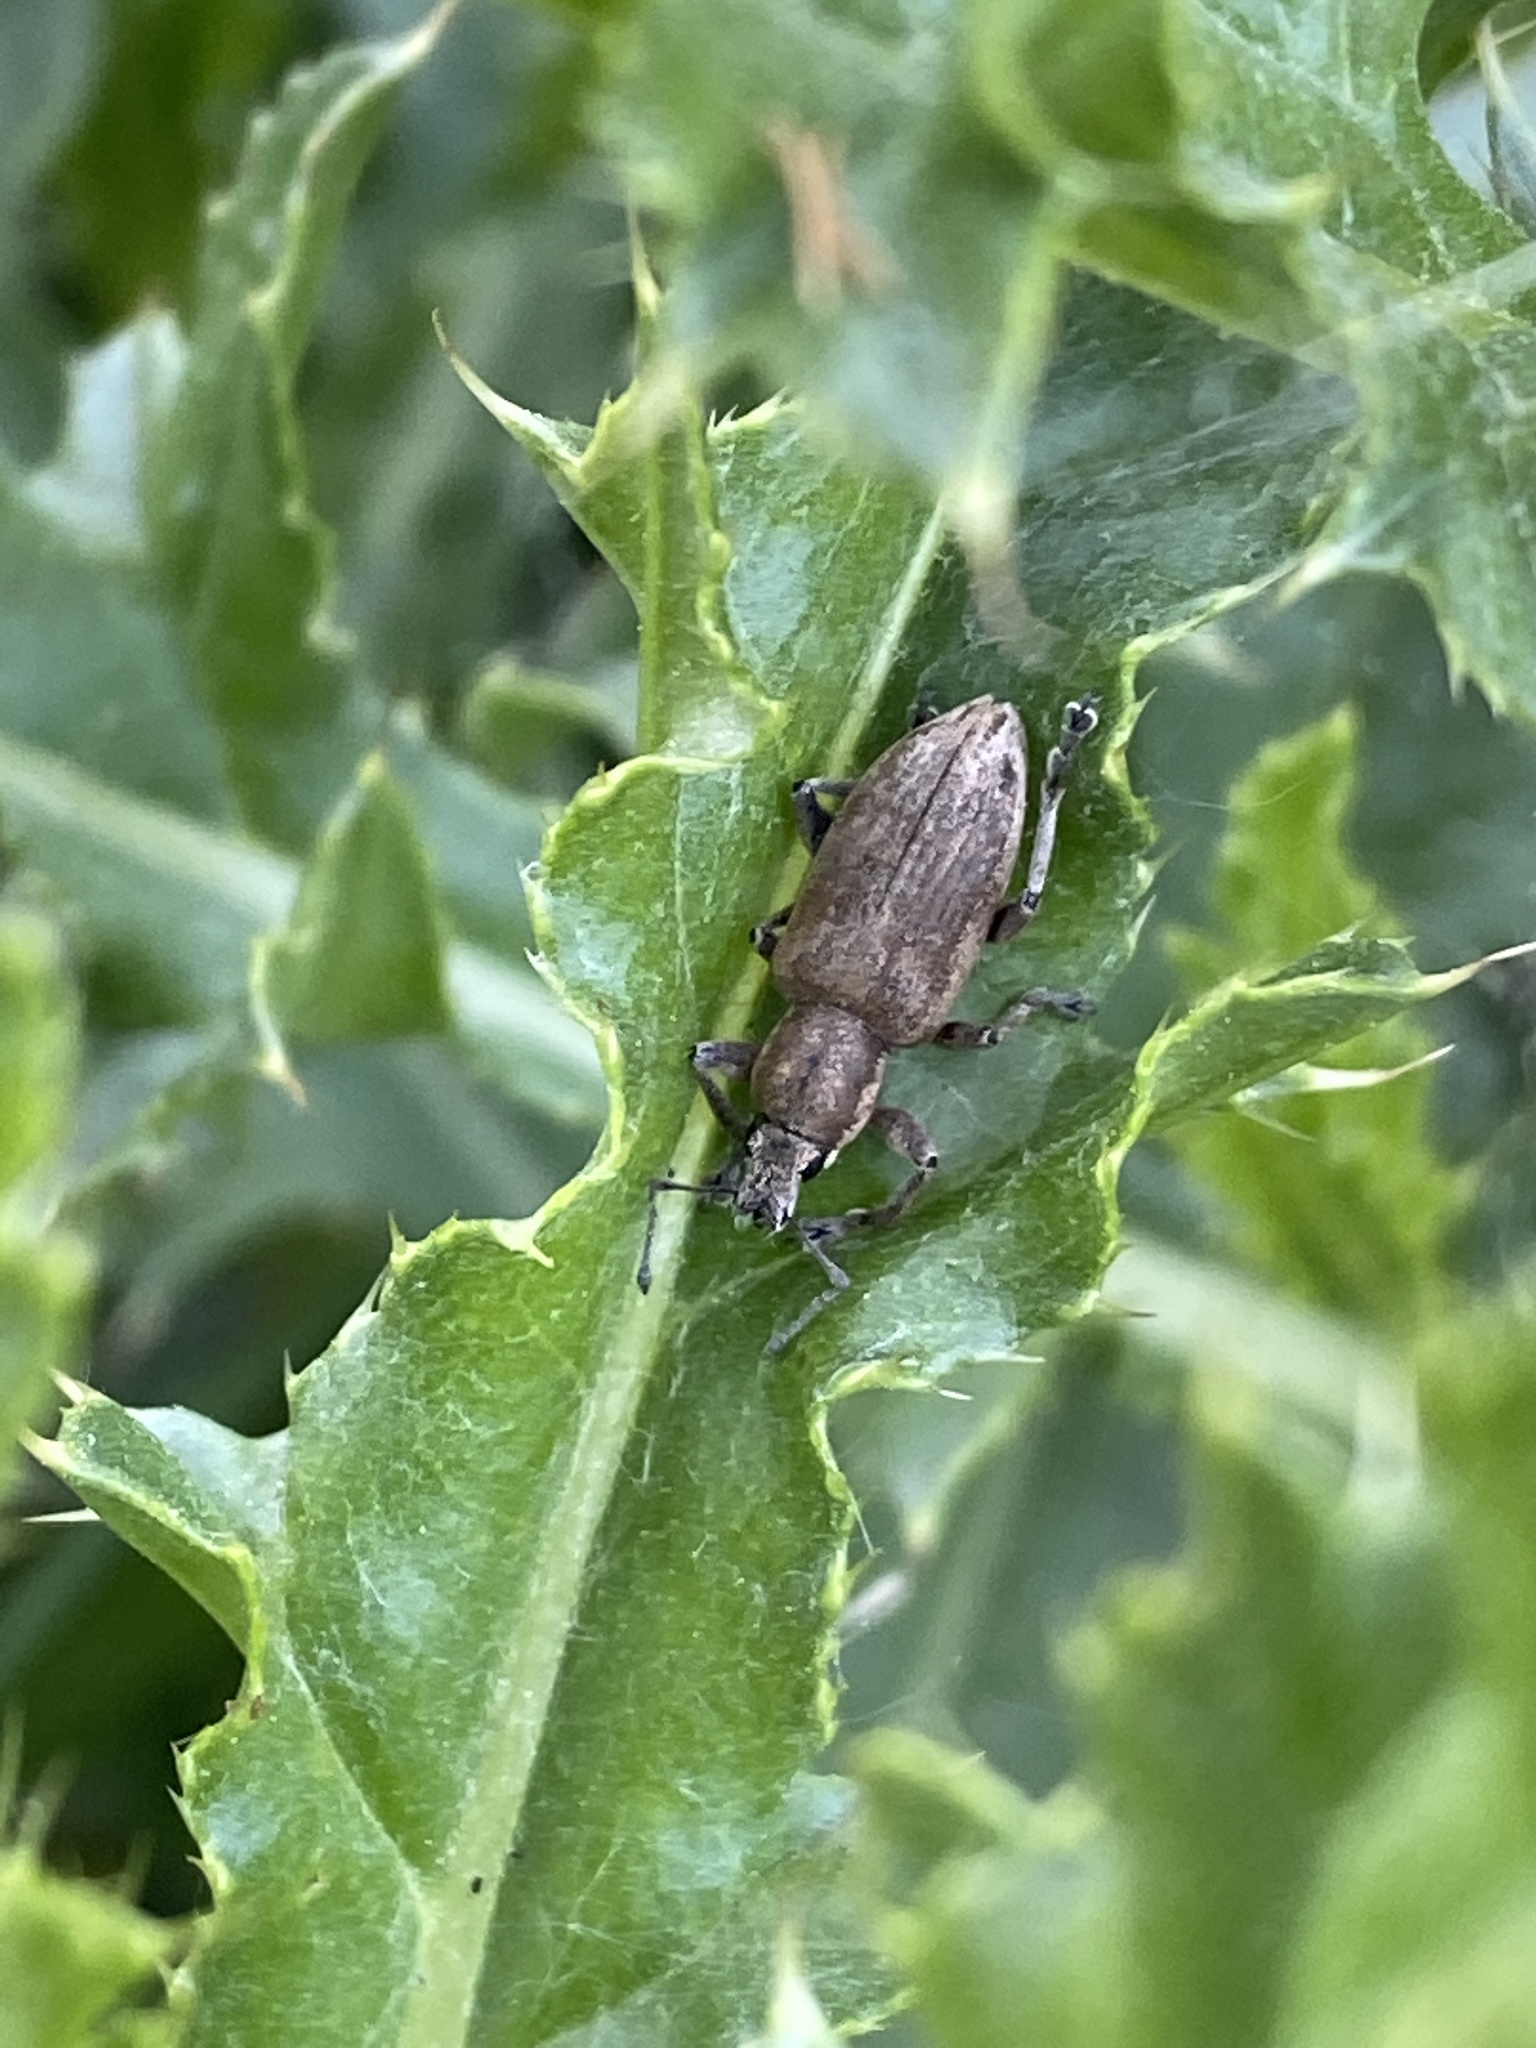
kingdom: Animalia
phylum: Arthropoda
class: Insecta
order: Coleoptera
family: Curculionidae
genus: Tanymecus
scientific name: Tanymecus palliatus
